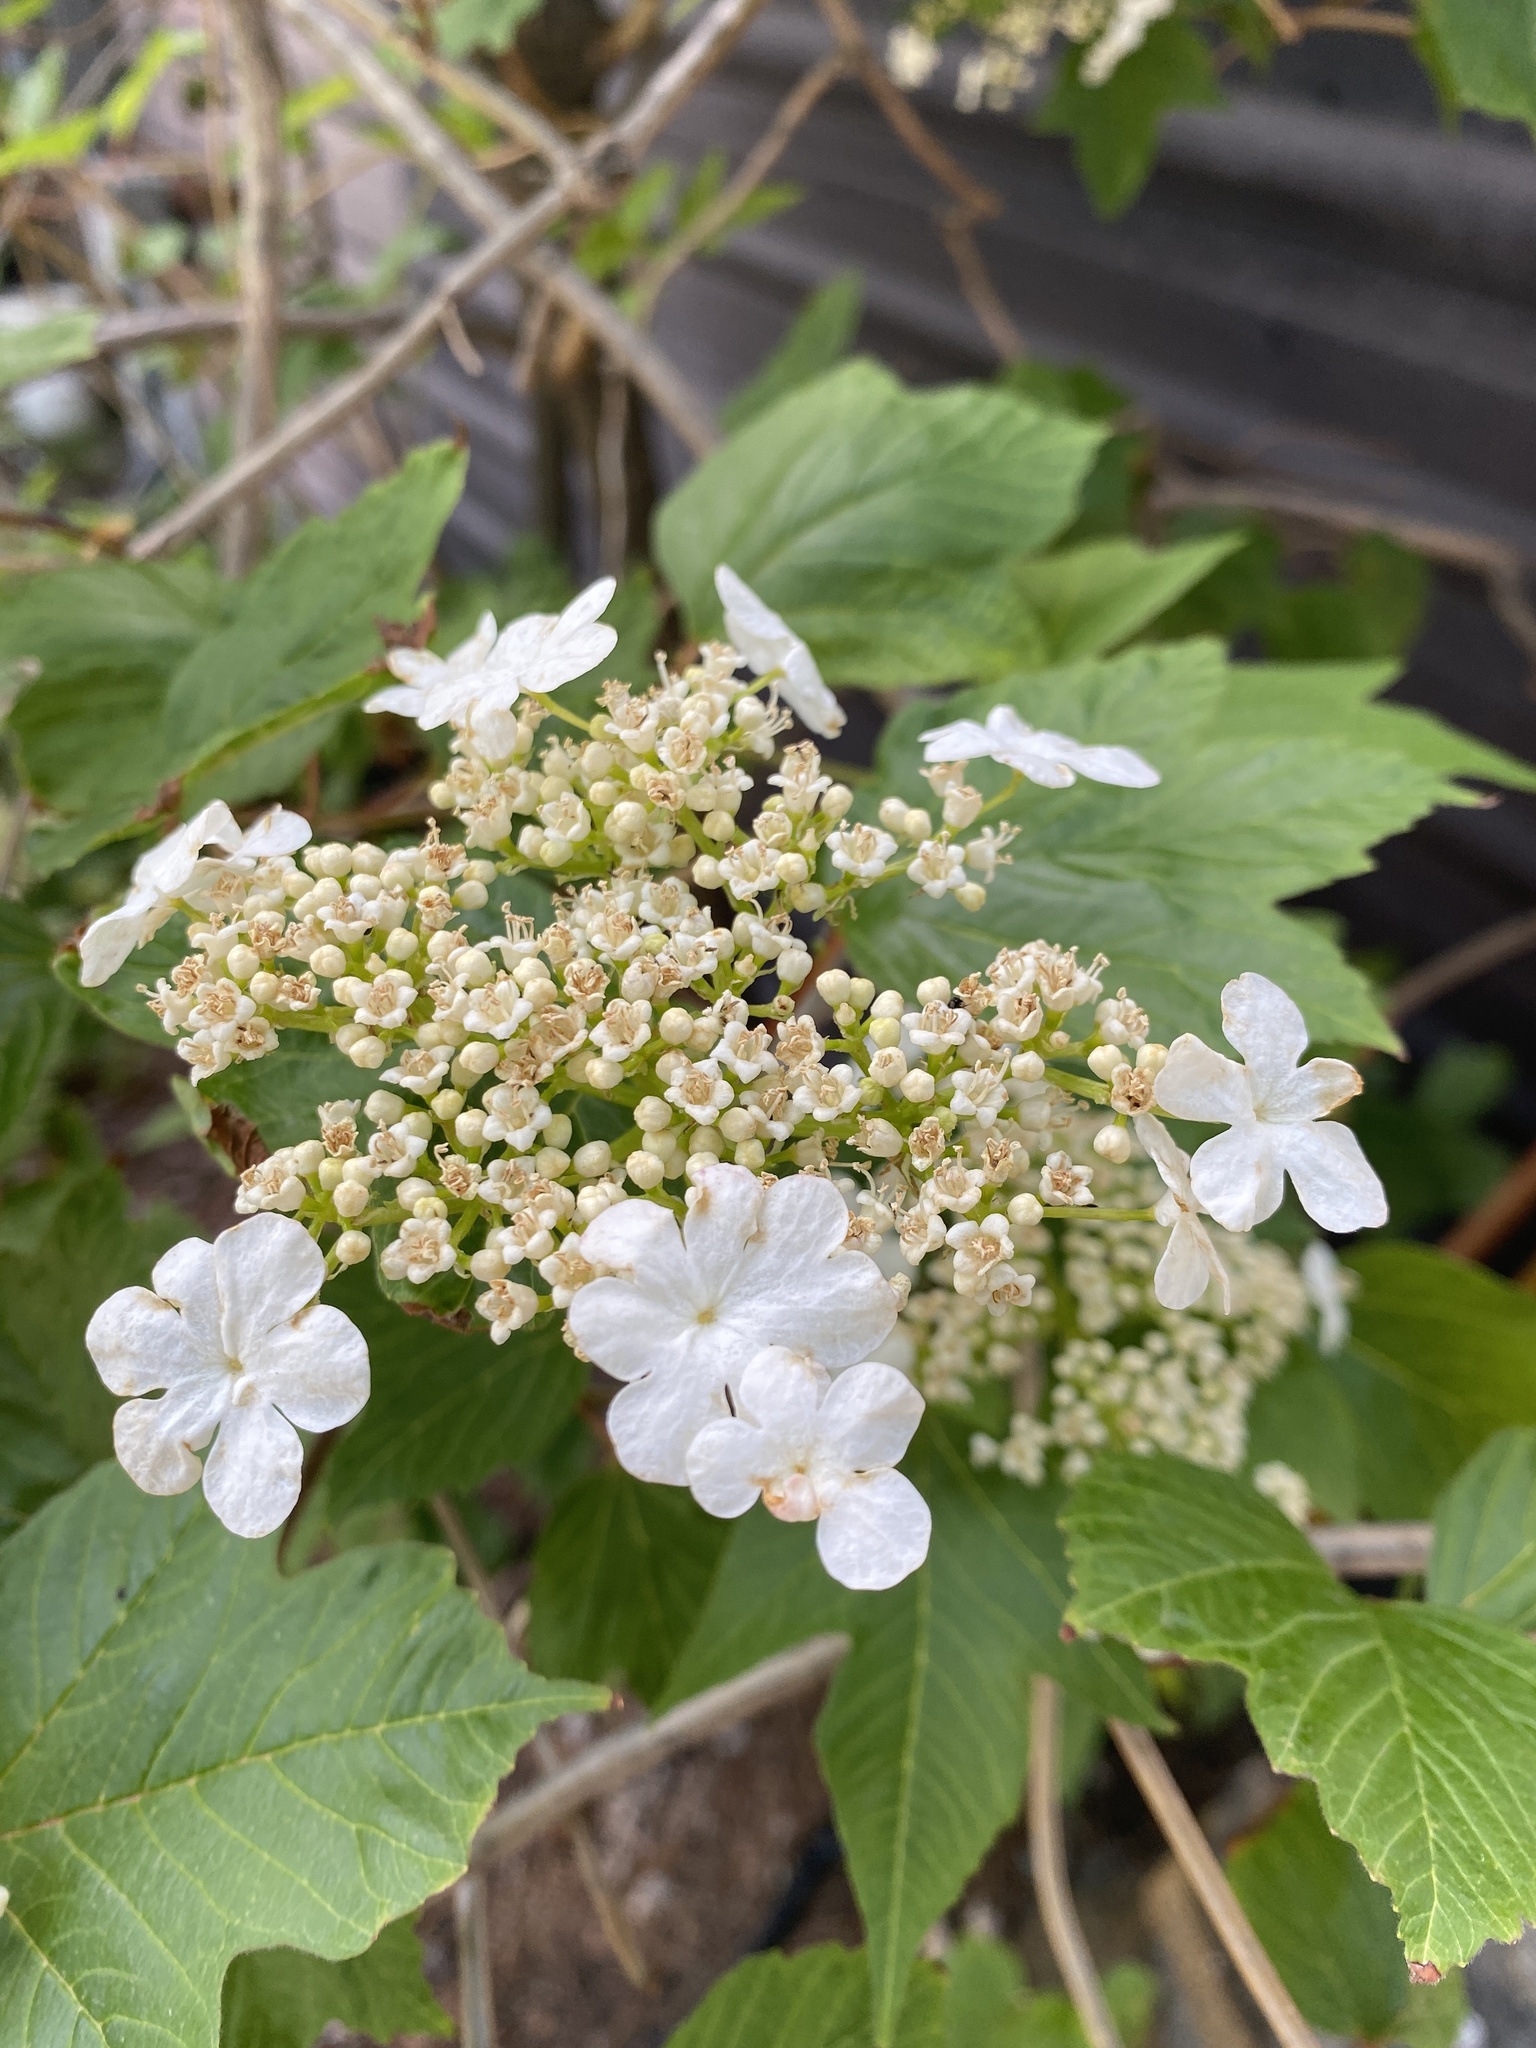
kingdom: Plantae
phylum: Tracheophyta
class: Magnoliopsida
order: Dipsacales
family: Viburnaceae
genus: Viburnum
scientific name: Viburnum opulus
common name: Guelder-rose
